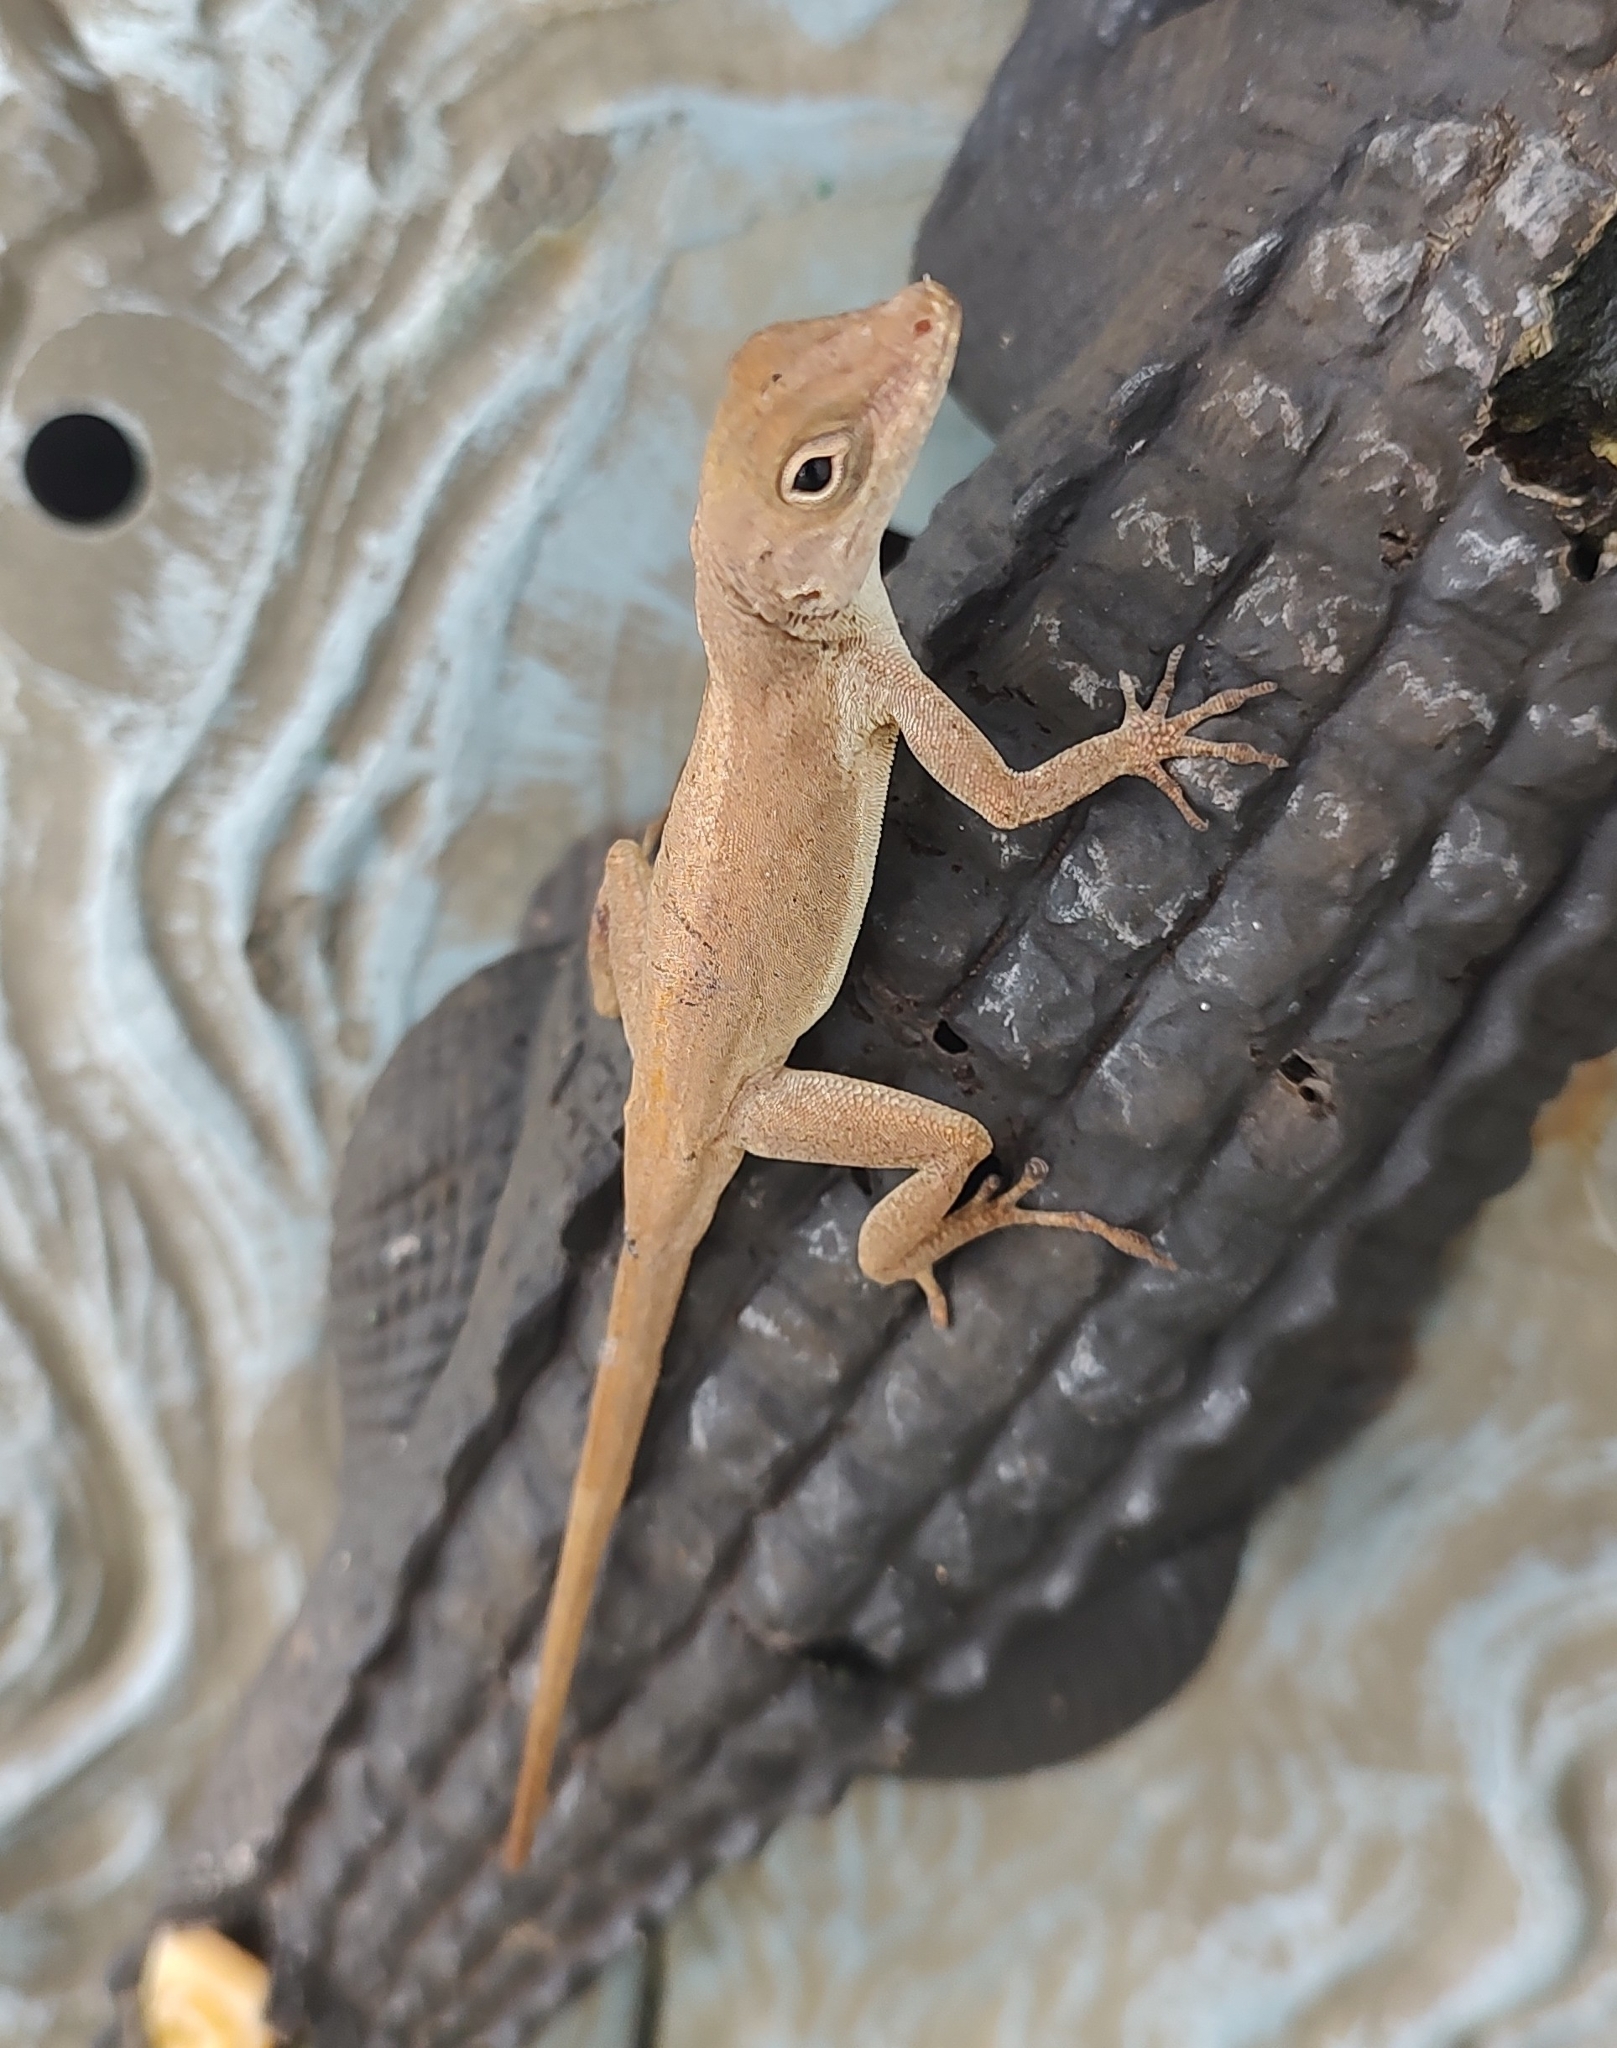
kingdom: Animalia
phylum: Chordata
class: Squamata
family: Dactyloidae
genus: Anolis
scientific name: Anolis cristatellus
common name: Crested anole
